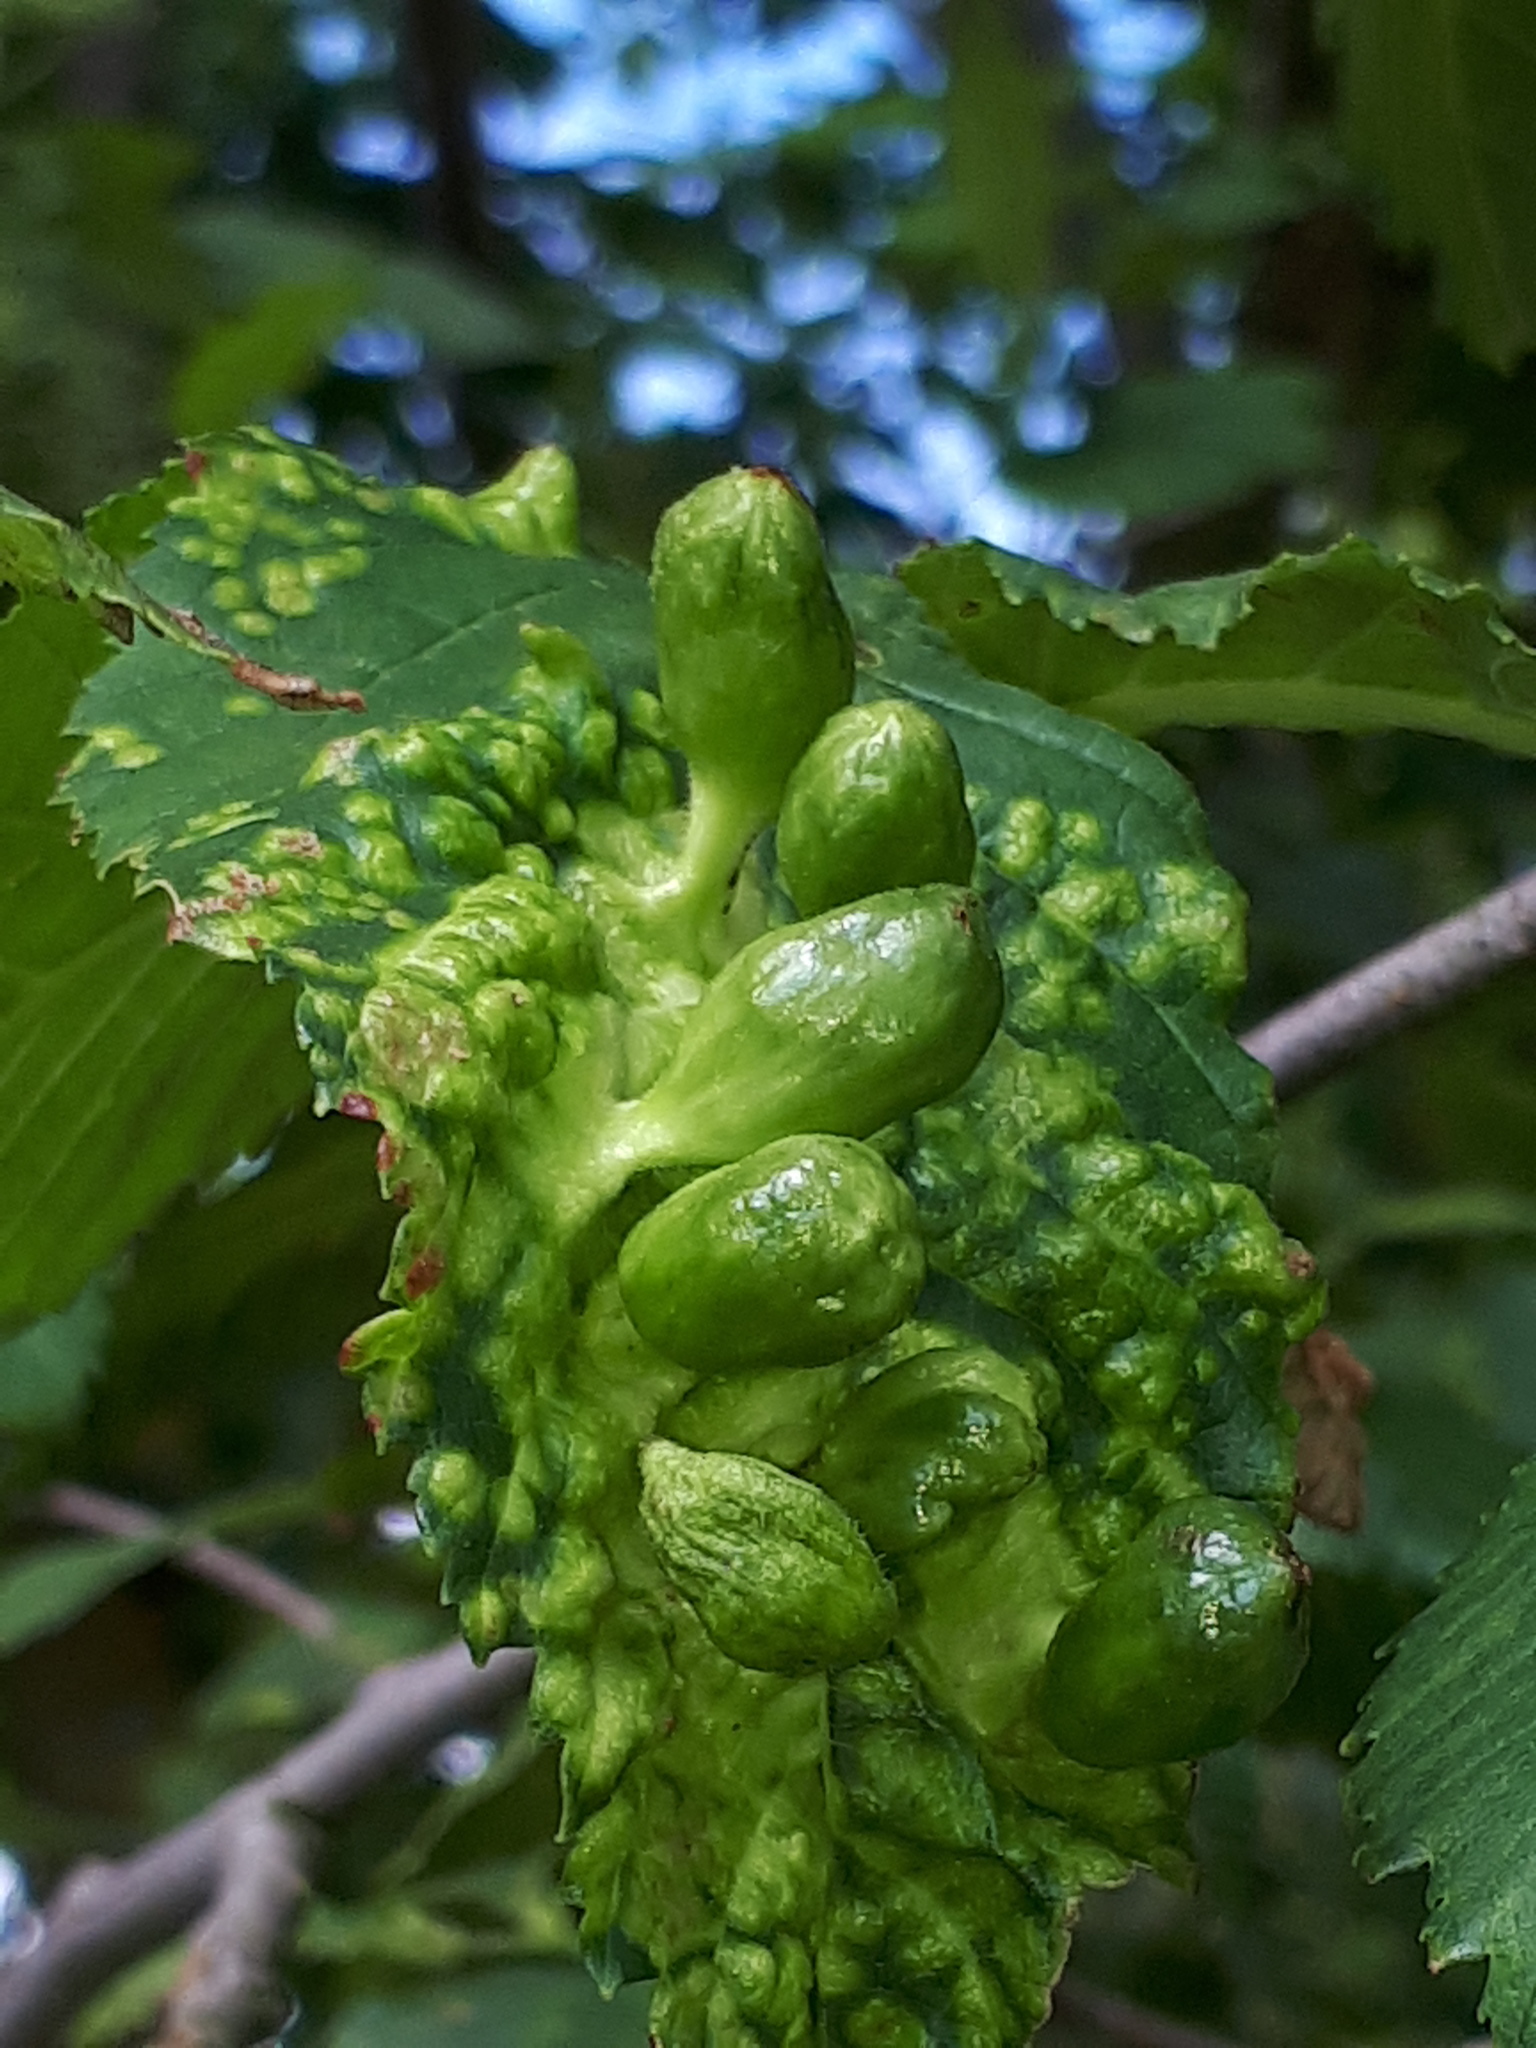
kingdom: Animalia
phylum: Arthropoda
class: Insecta
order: Hemiptera
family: Aphididae
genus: Tetraneura
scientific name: Tetraneura ulmi
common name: Aphid
